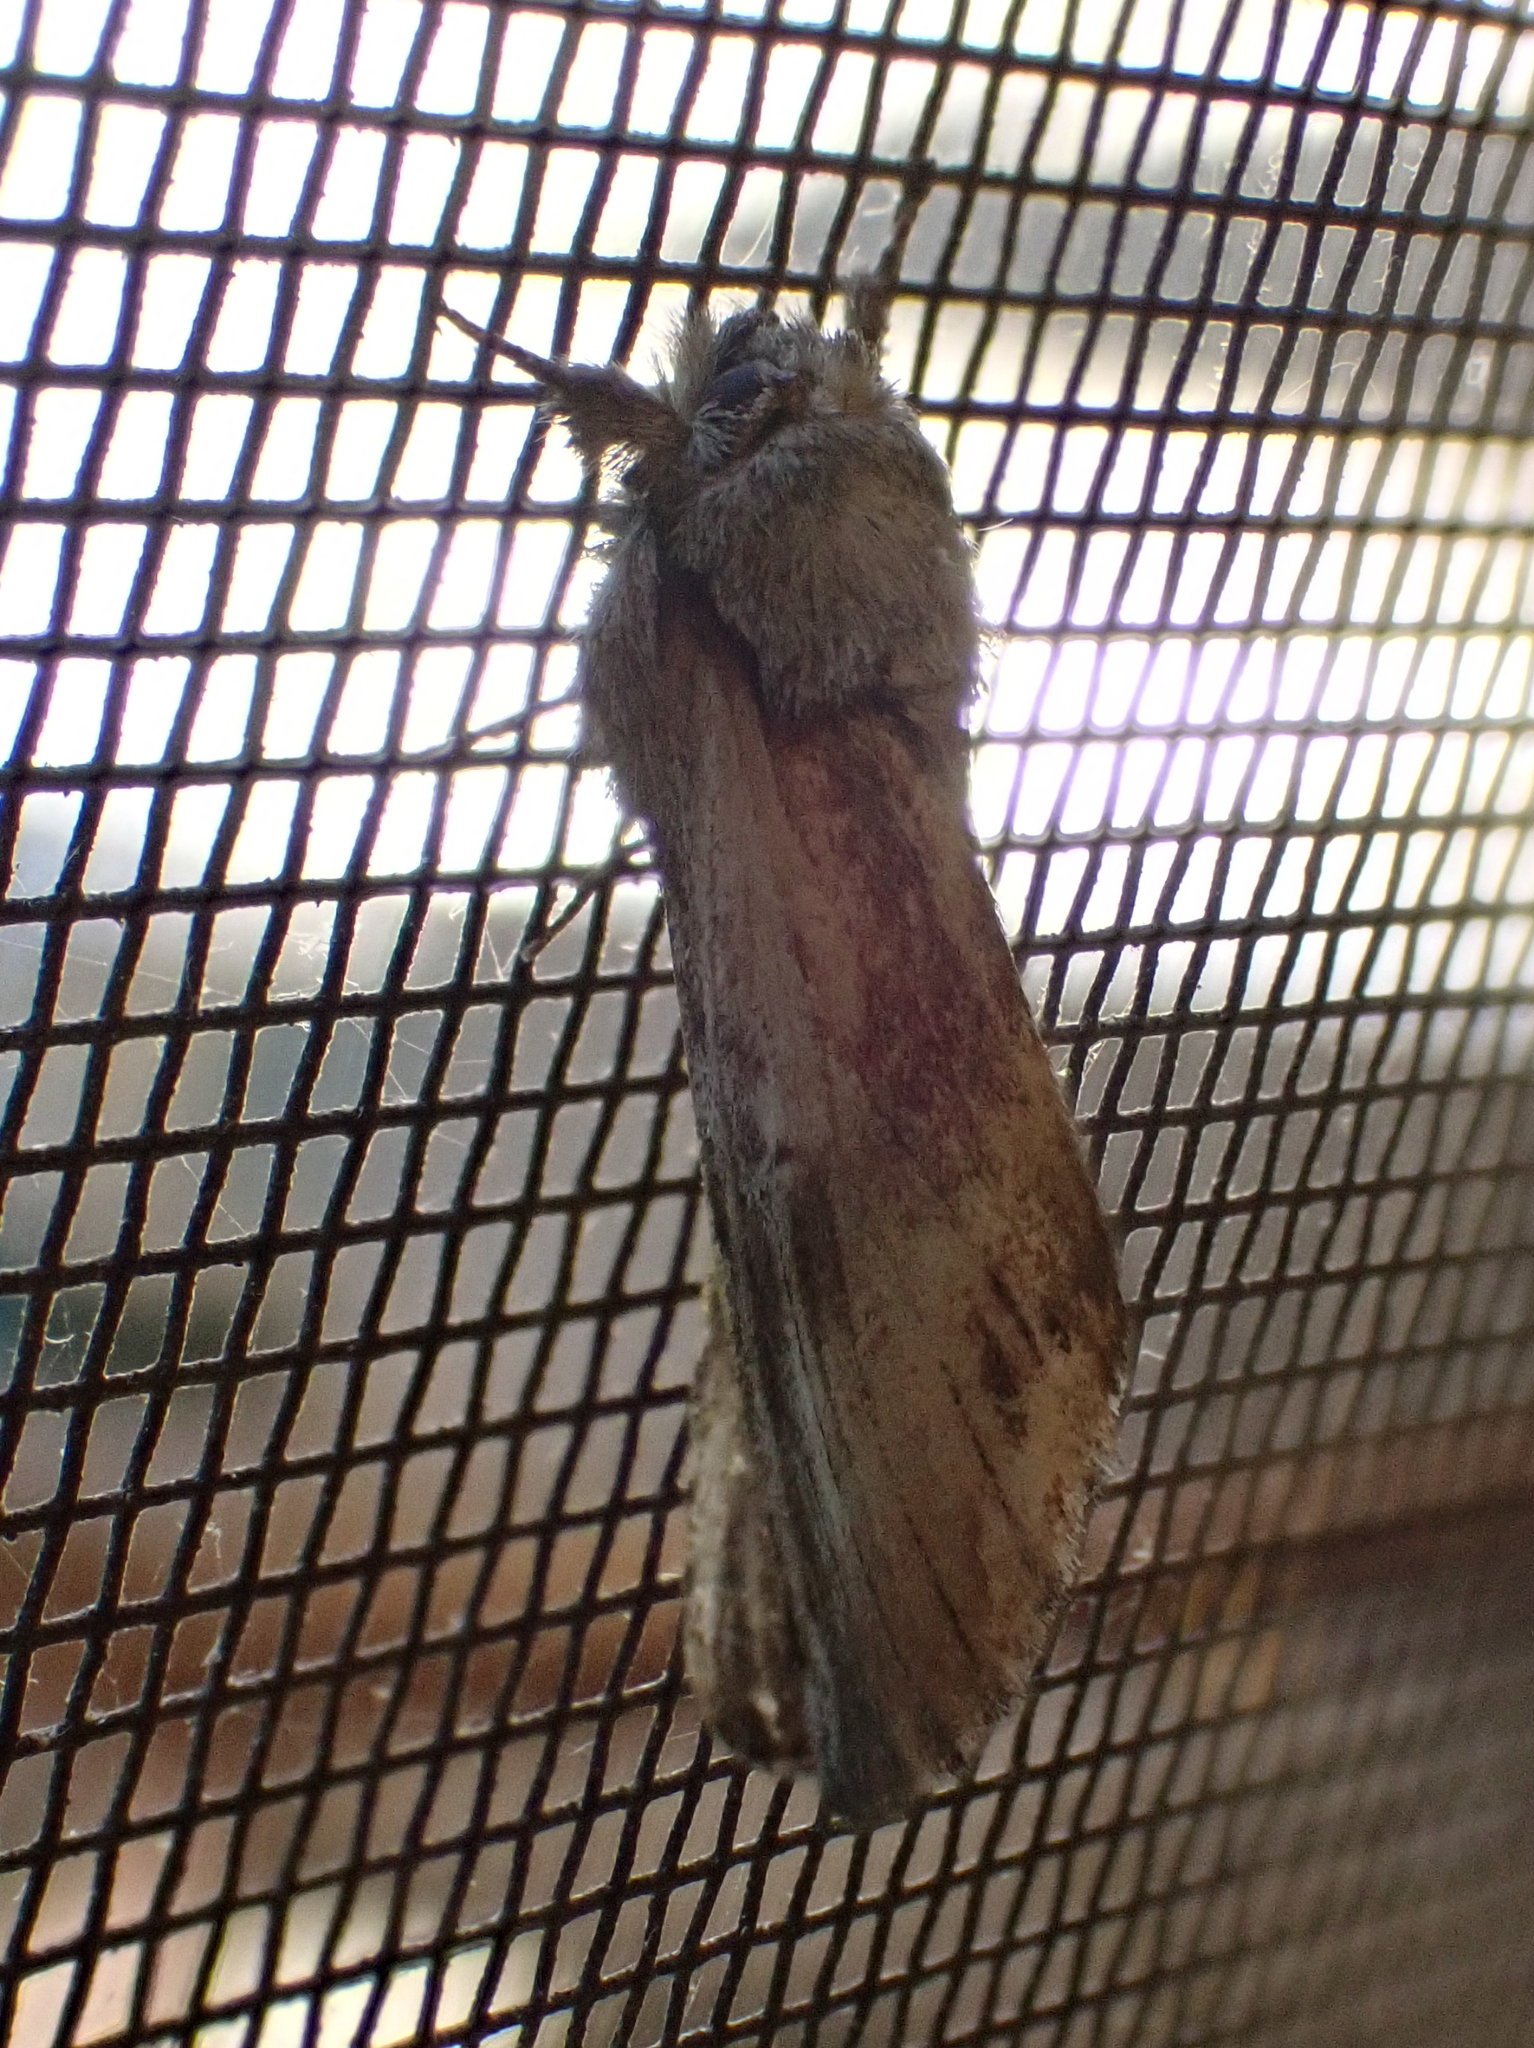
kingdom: Animalia
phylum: Arthropoda
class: Insecta
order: Lepidoptera
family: Notodontidae
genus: Schizura
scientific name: Schizura
